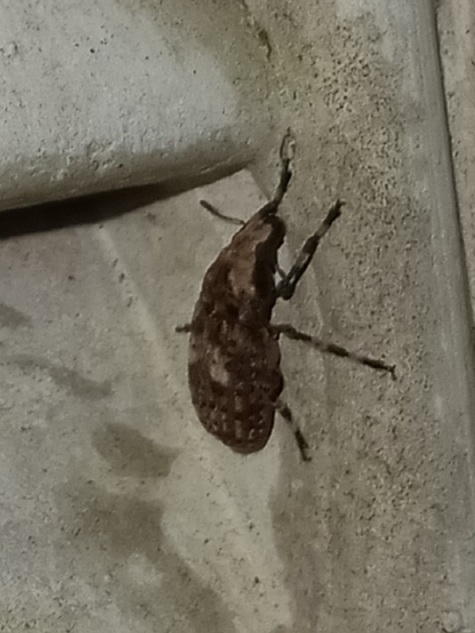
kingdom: Animalia
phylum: Arthropoda
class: Insecta
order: Coleoptera
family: Anthribidae
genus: Euparius
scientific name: Euparius marmoreus
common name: Marbled fungus weevil
